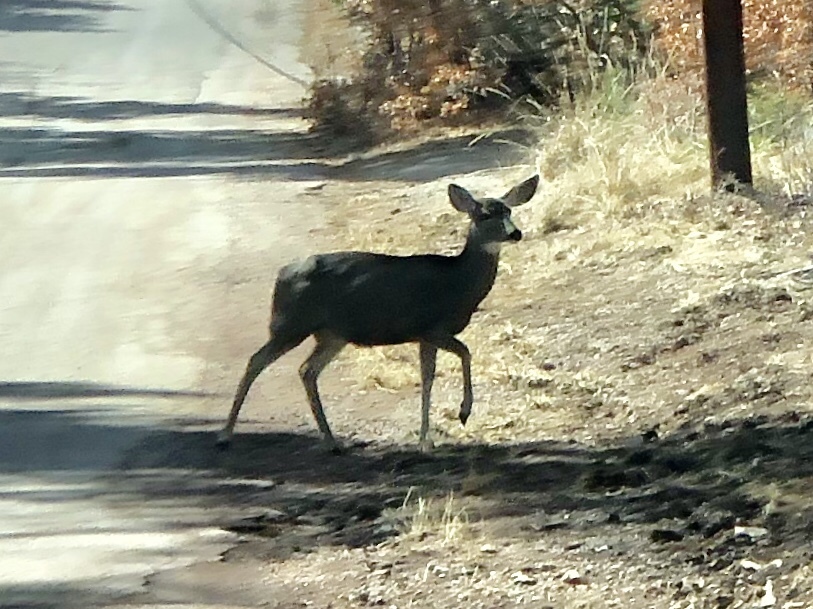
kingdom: Animalia
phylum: Chordata
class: Mammalia
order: Artiodactyla
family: Cervidae
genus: Odocoileus
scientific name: Odocoileus hemionus
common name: Mule deer
